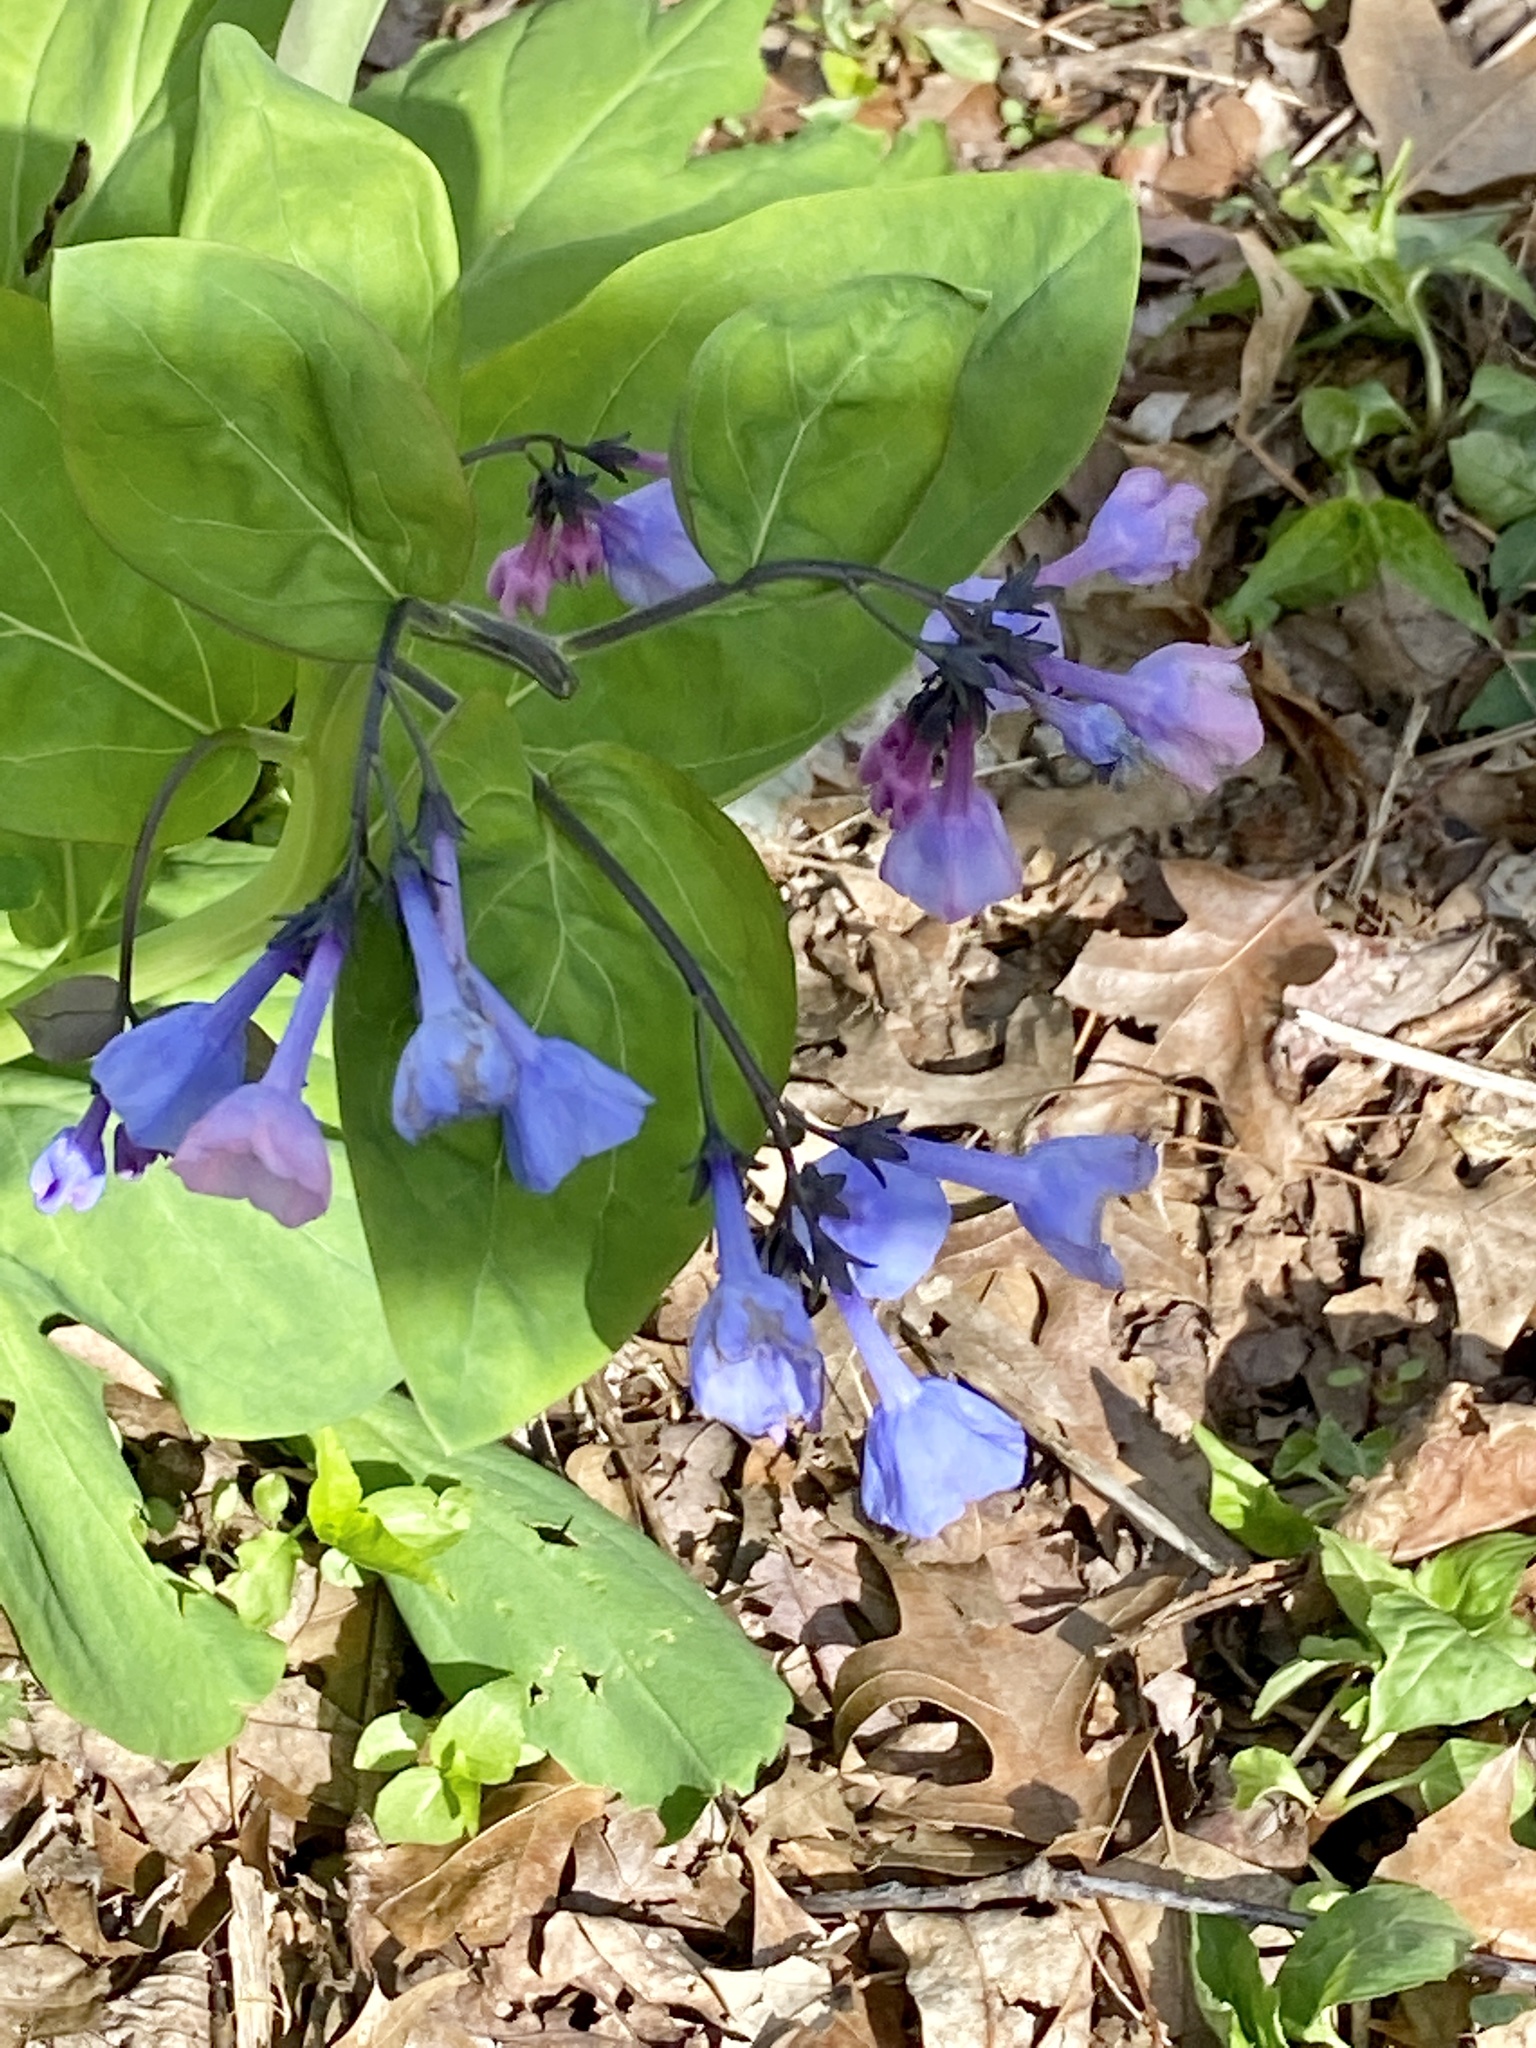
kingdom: Plantae
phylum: Tracheophyta
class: Magnoliopsida
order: Boraginales
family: Boraginaceae
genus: Mertensia
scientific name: Mertensia virginica
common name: Virginia bluebells
